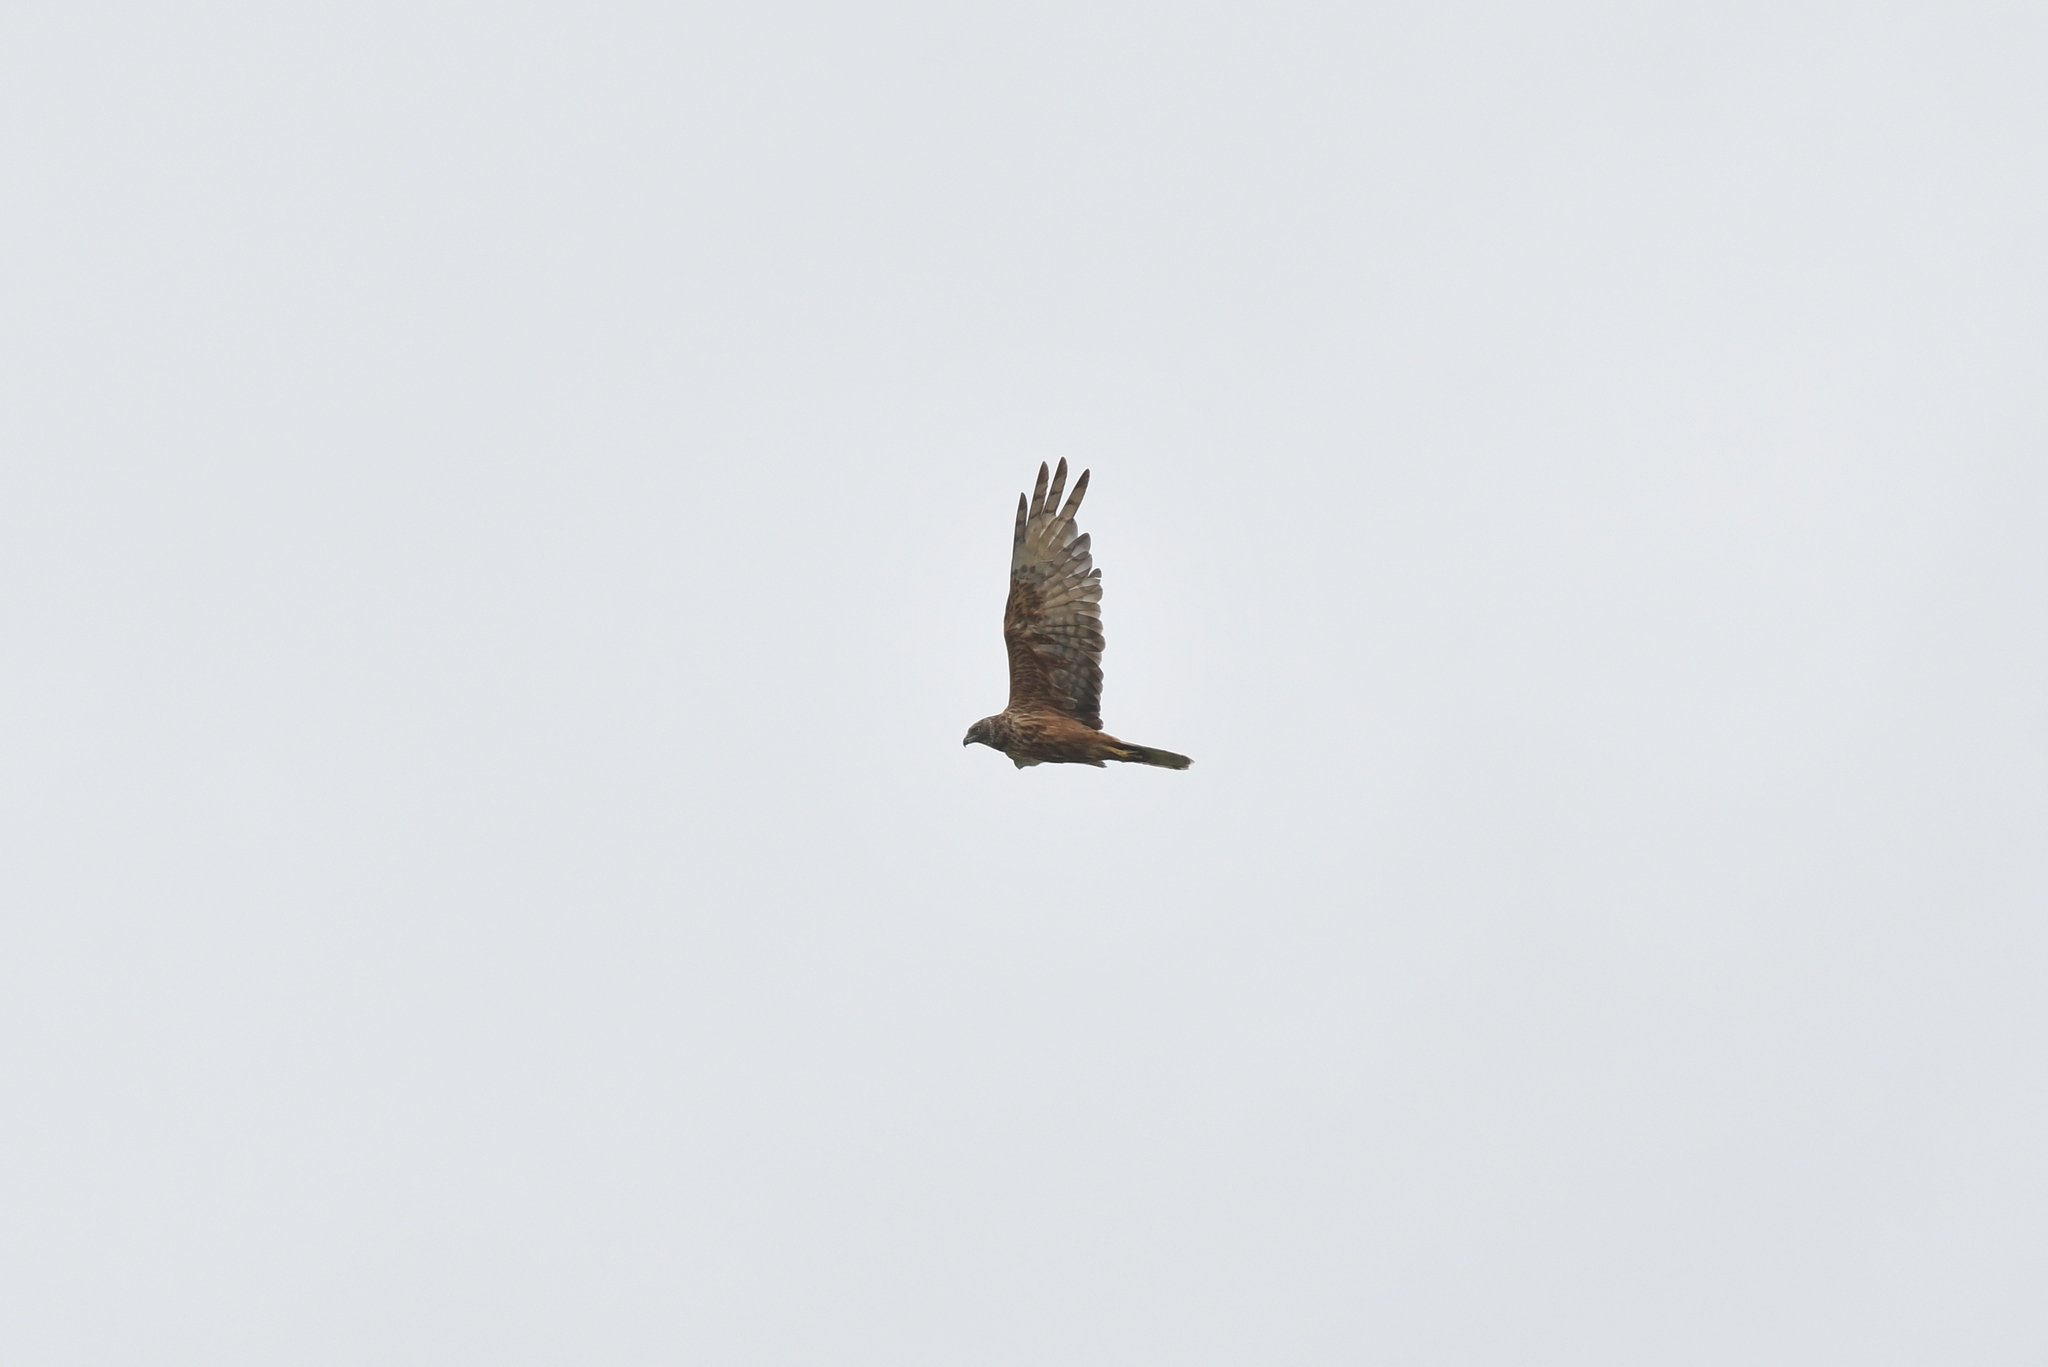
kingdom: Animalia
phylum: Chordata
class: Aves
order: Accipitriformes
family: Accipitridae
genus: Circus
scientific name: Circus approximans
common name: Swamp harrier
